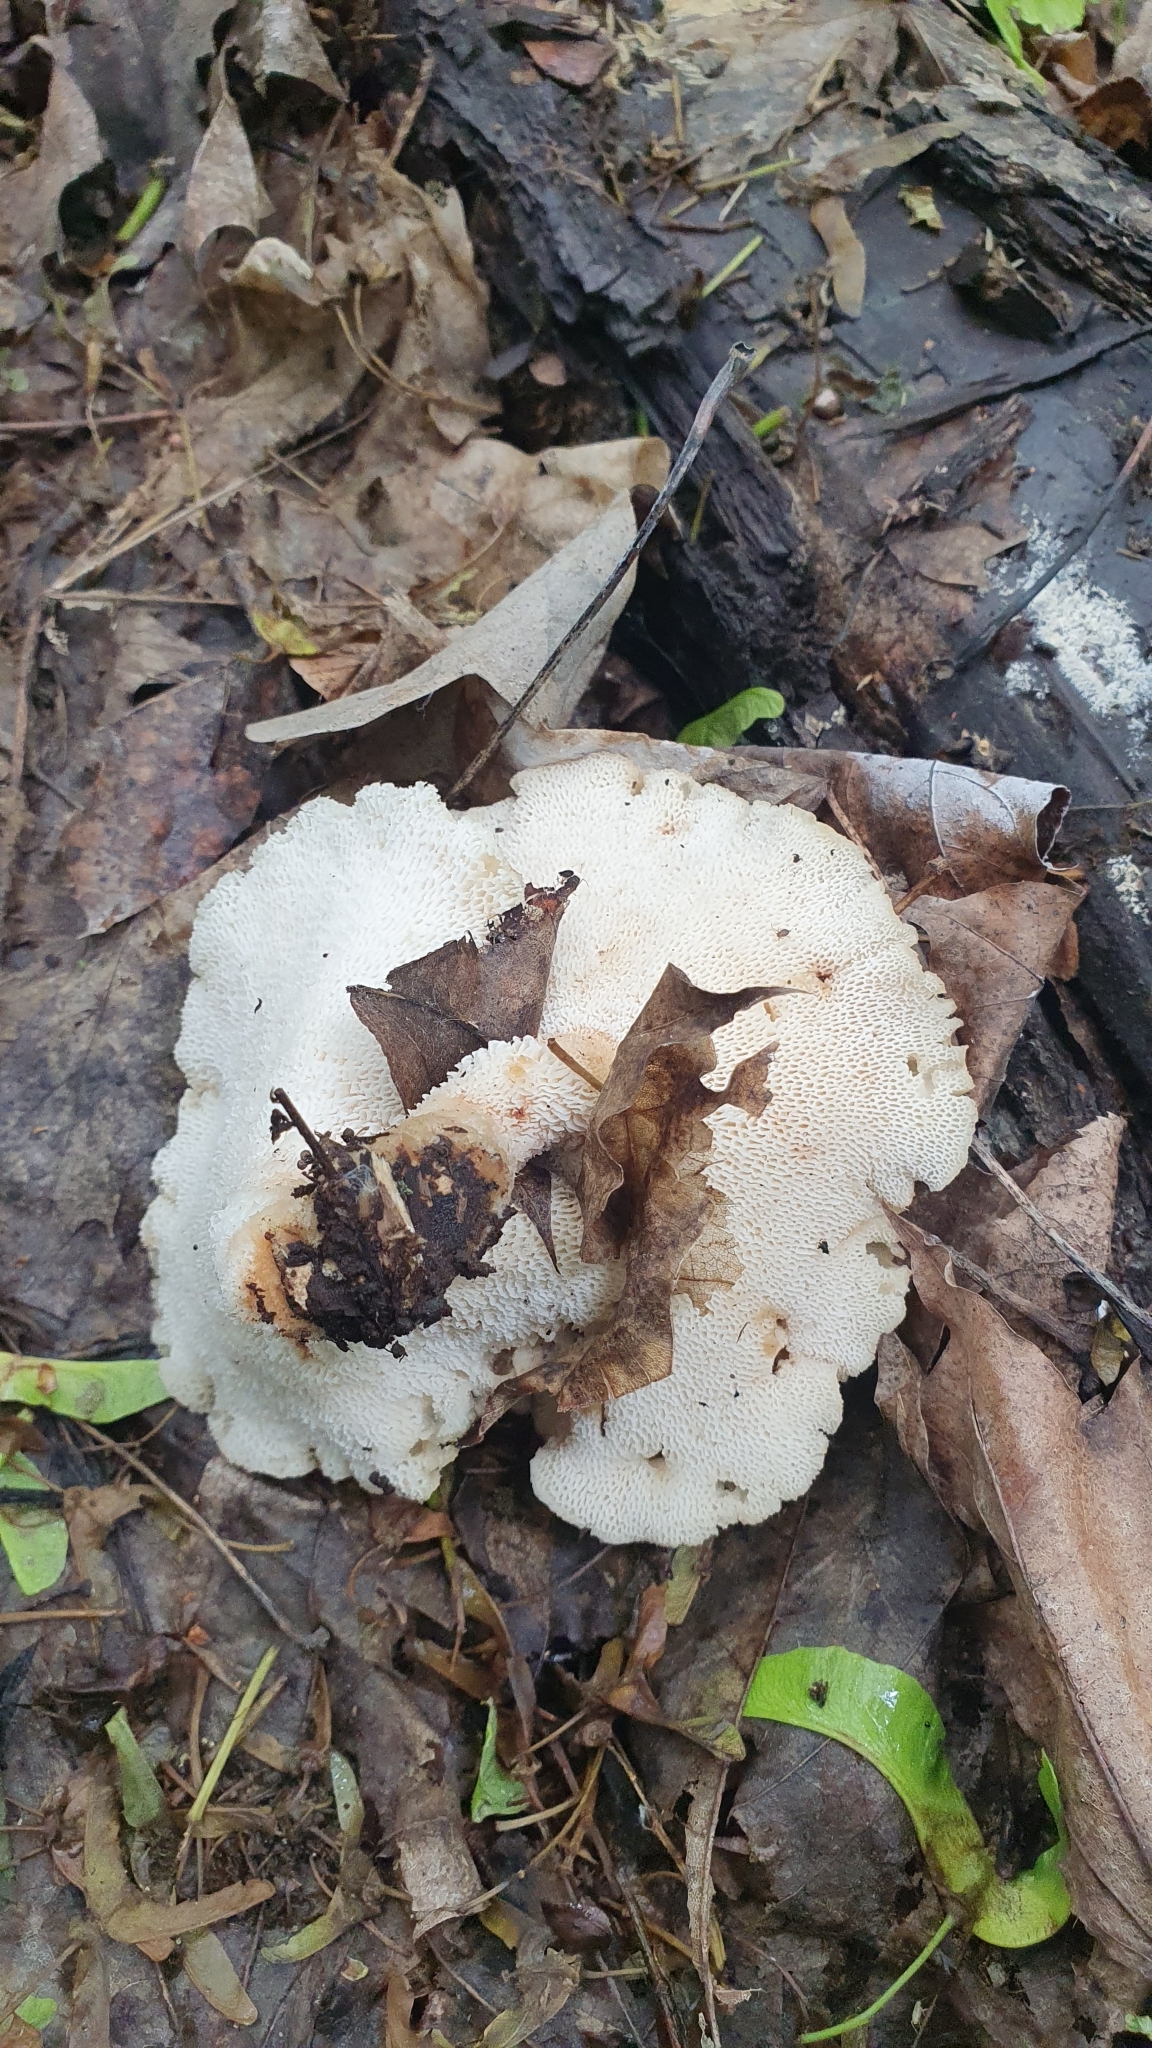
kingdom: Fungi
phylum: Basidiomycota
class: Agaricomycetes
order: Polyporales
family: Polyporaceae
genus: Polyporus
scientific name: Polyporus tuberaster
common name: Tuberous polypore
